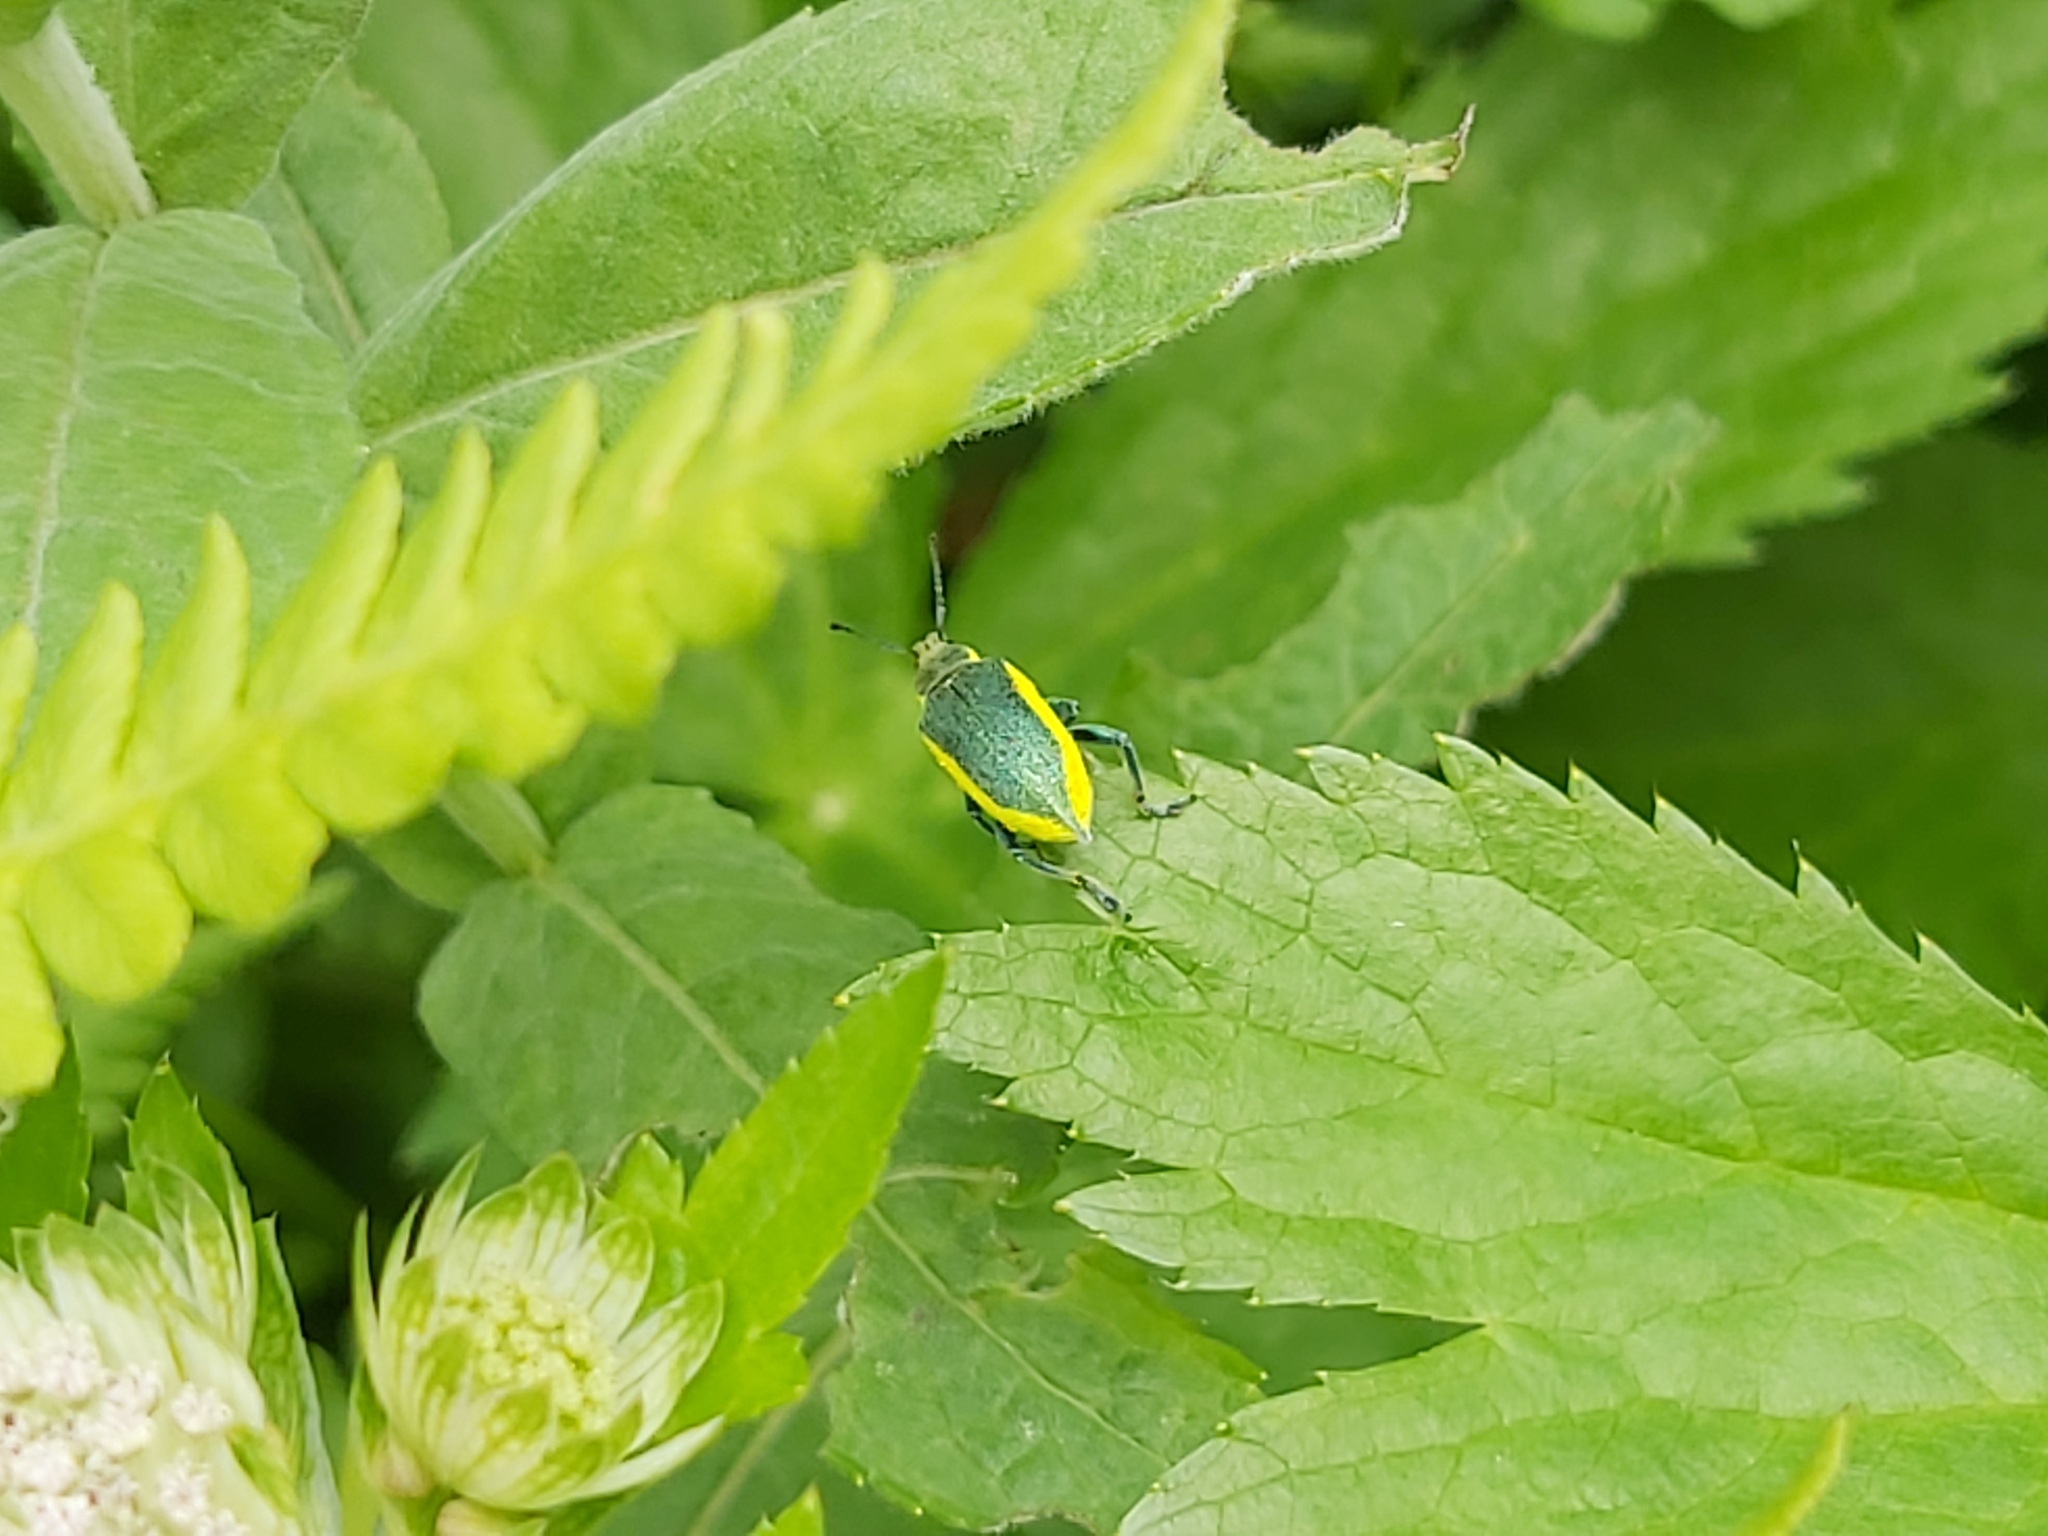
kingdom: Animalia
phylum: Arthropoda
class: Insecta
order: Coleoptera
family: Curculionidae
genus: Chlorophanus
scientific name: Chlorophanus viridis
